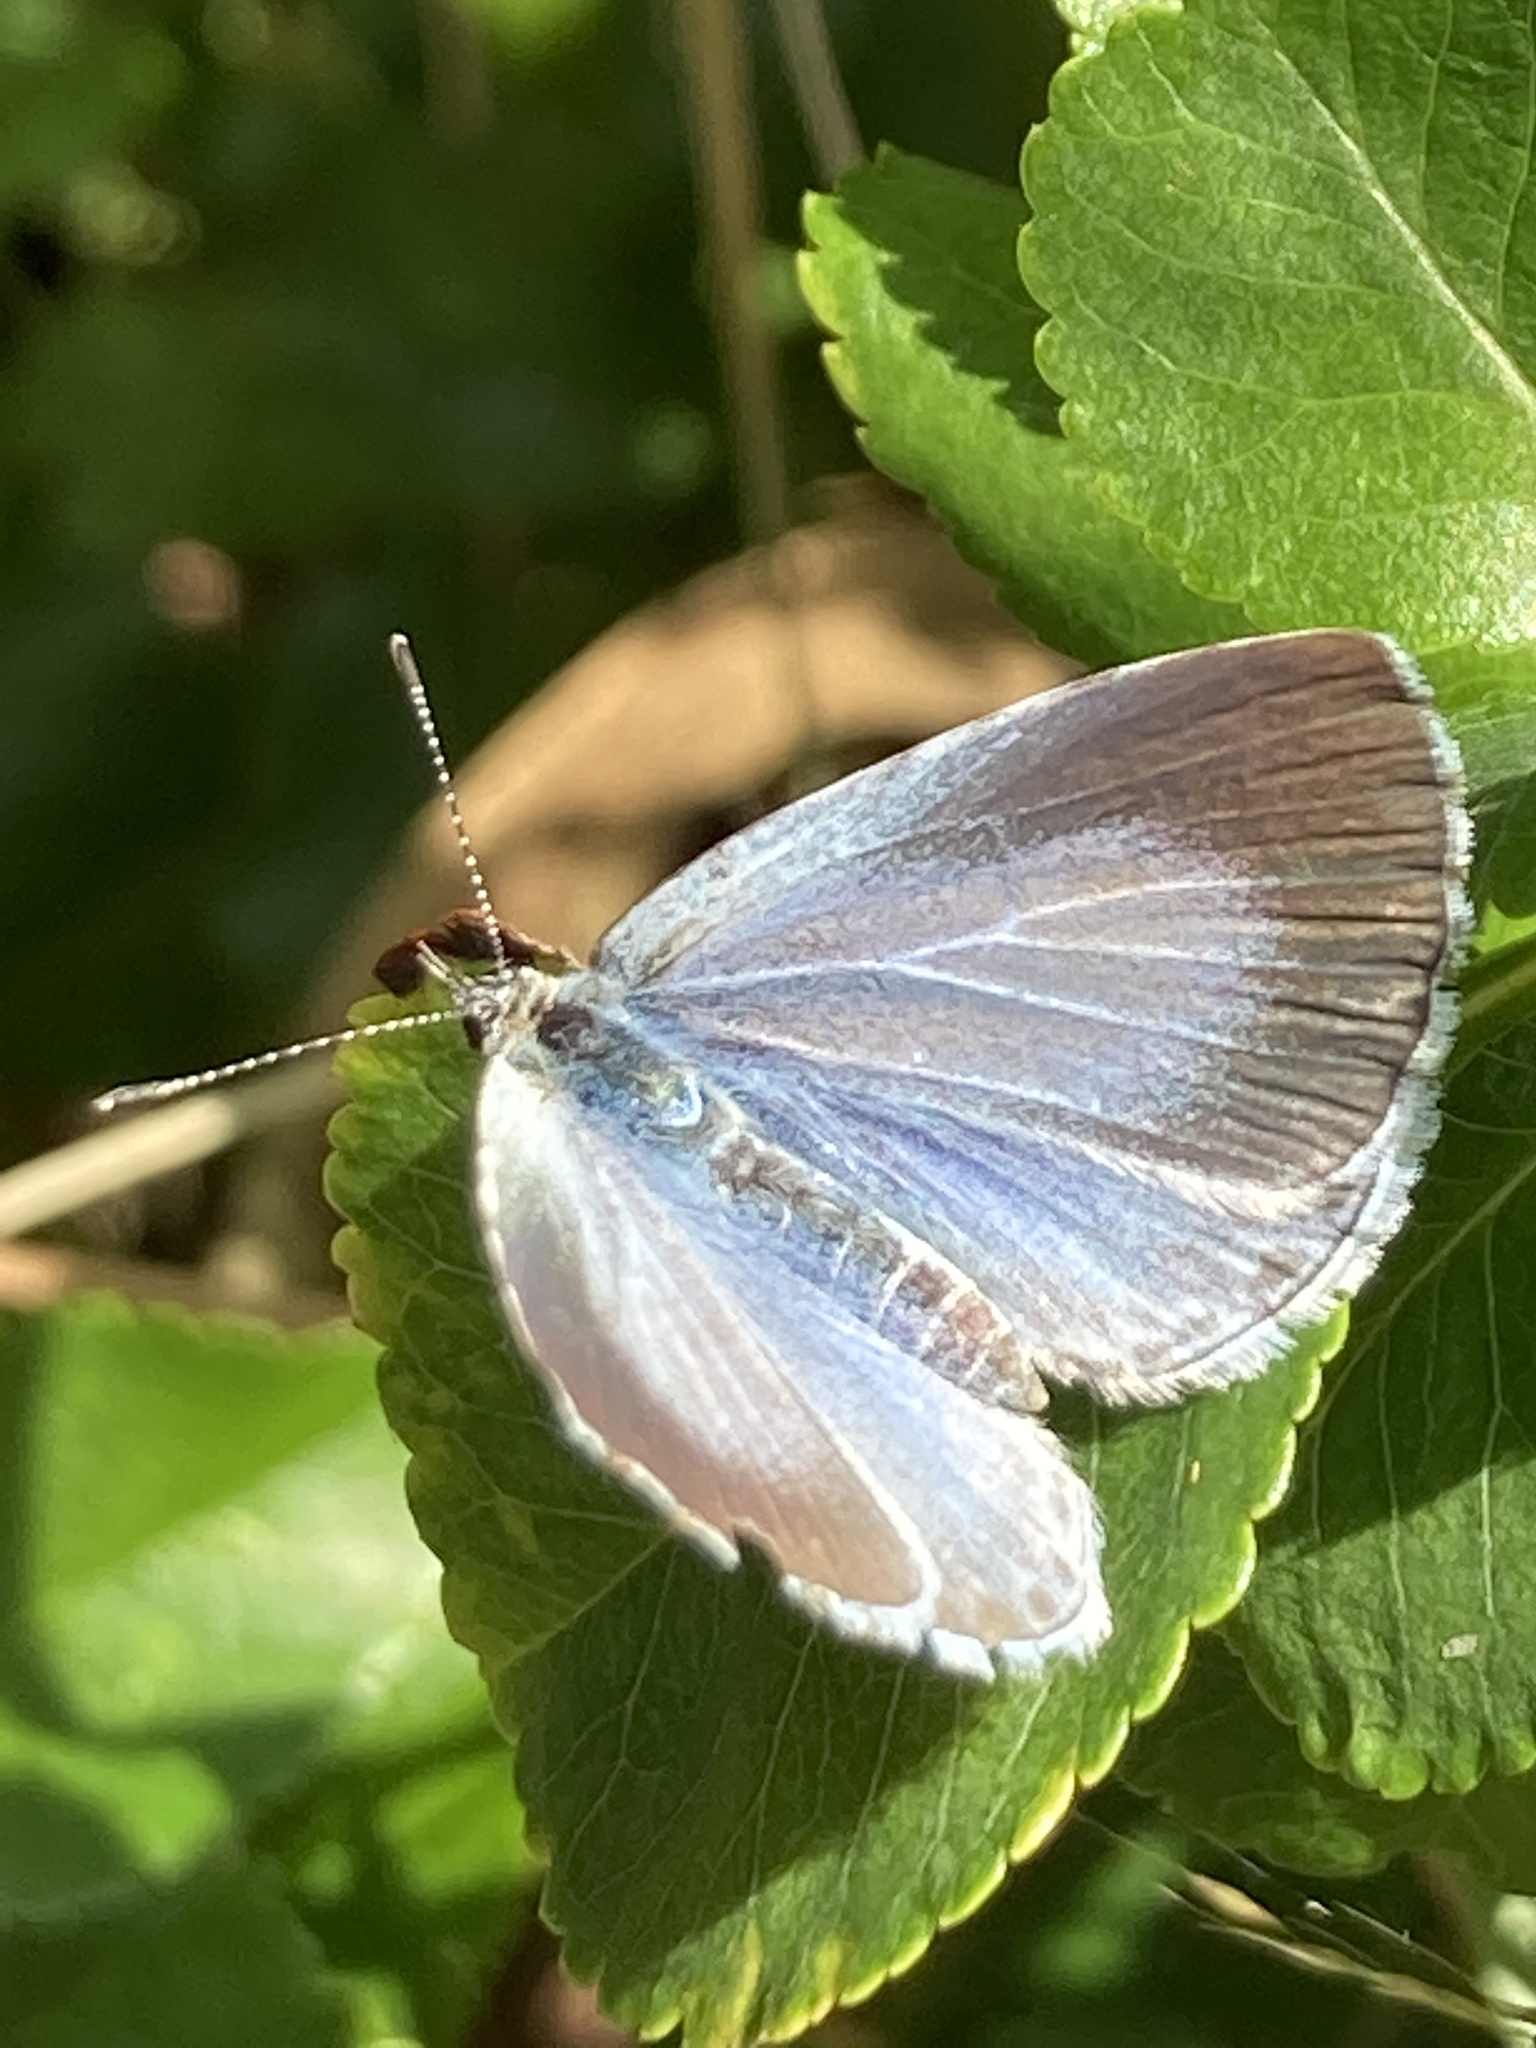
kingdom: Animalia
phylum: Arthropoda
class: Insecta
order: Lepidoptera
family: Lycaenidae
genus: Celastrina
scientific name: Celastrina argiolus
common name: Holly blue
